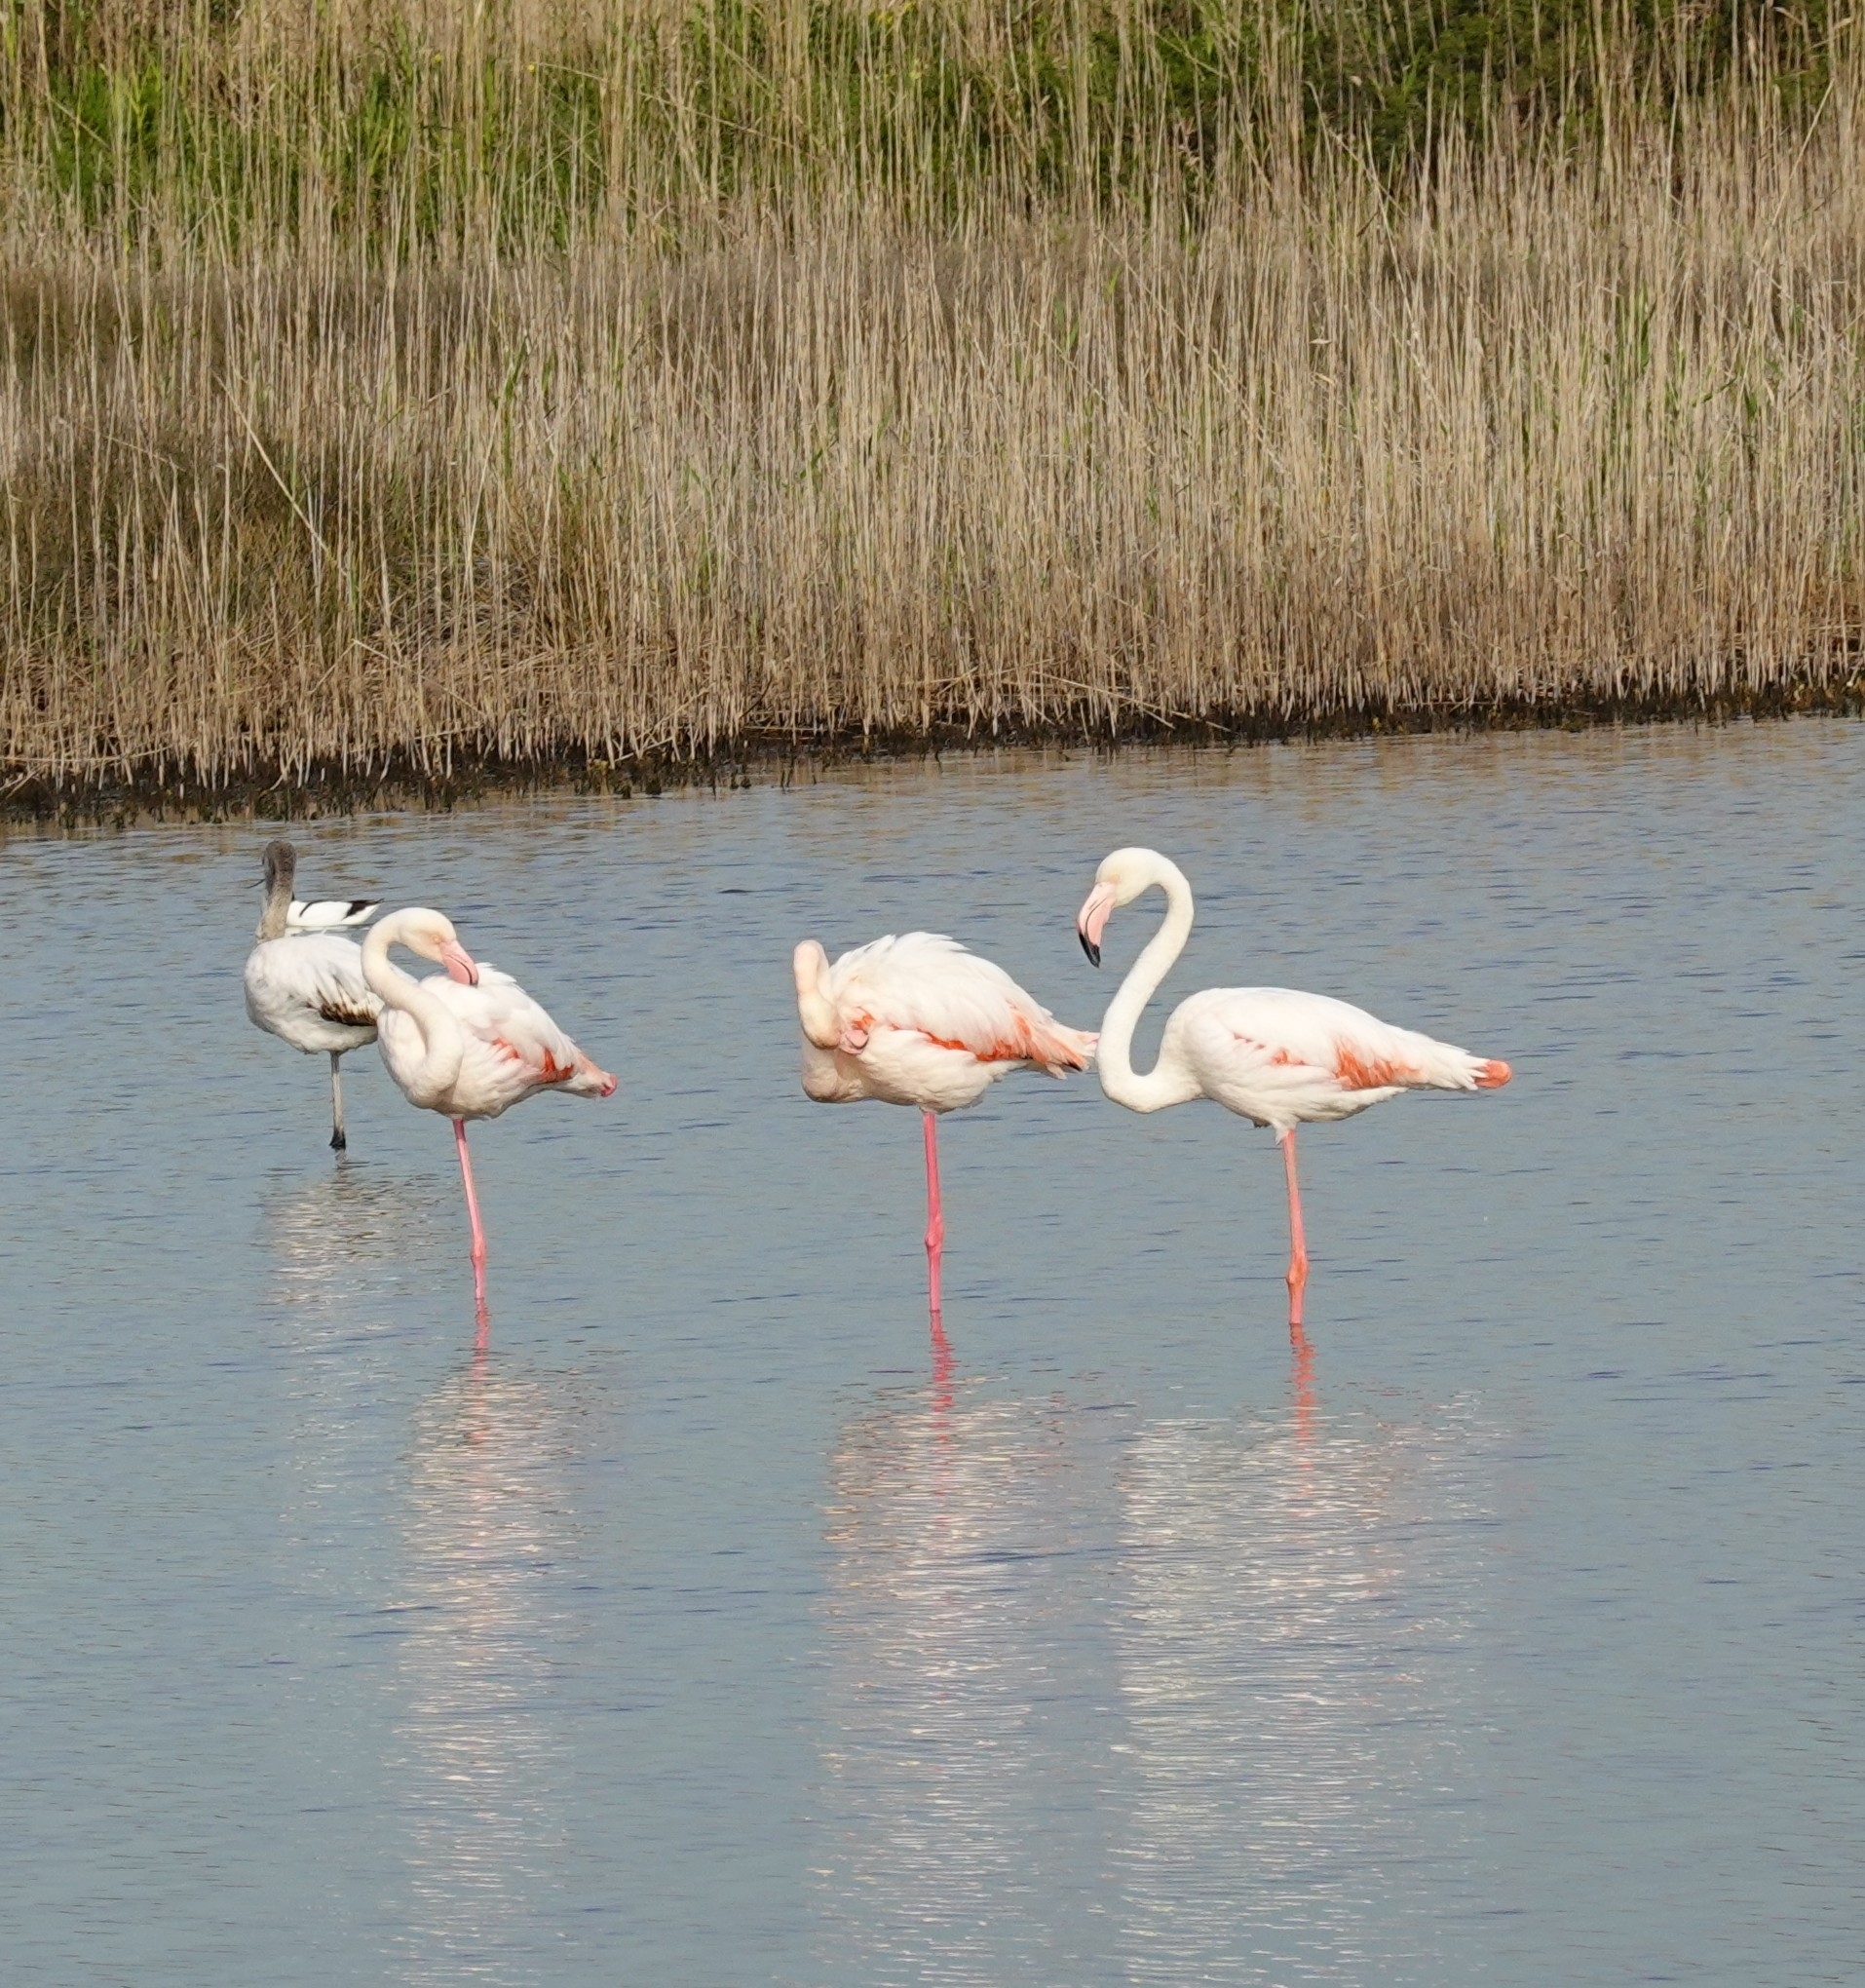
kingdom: Animalia
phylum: Chordata
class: Aves
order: Phoenicopteriformes
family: Phoenicopteridae
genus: Phoenicopterus
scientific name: Phoenicopterus roseus
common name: Greater flamingo
